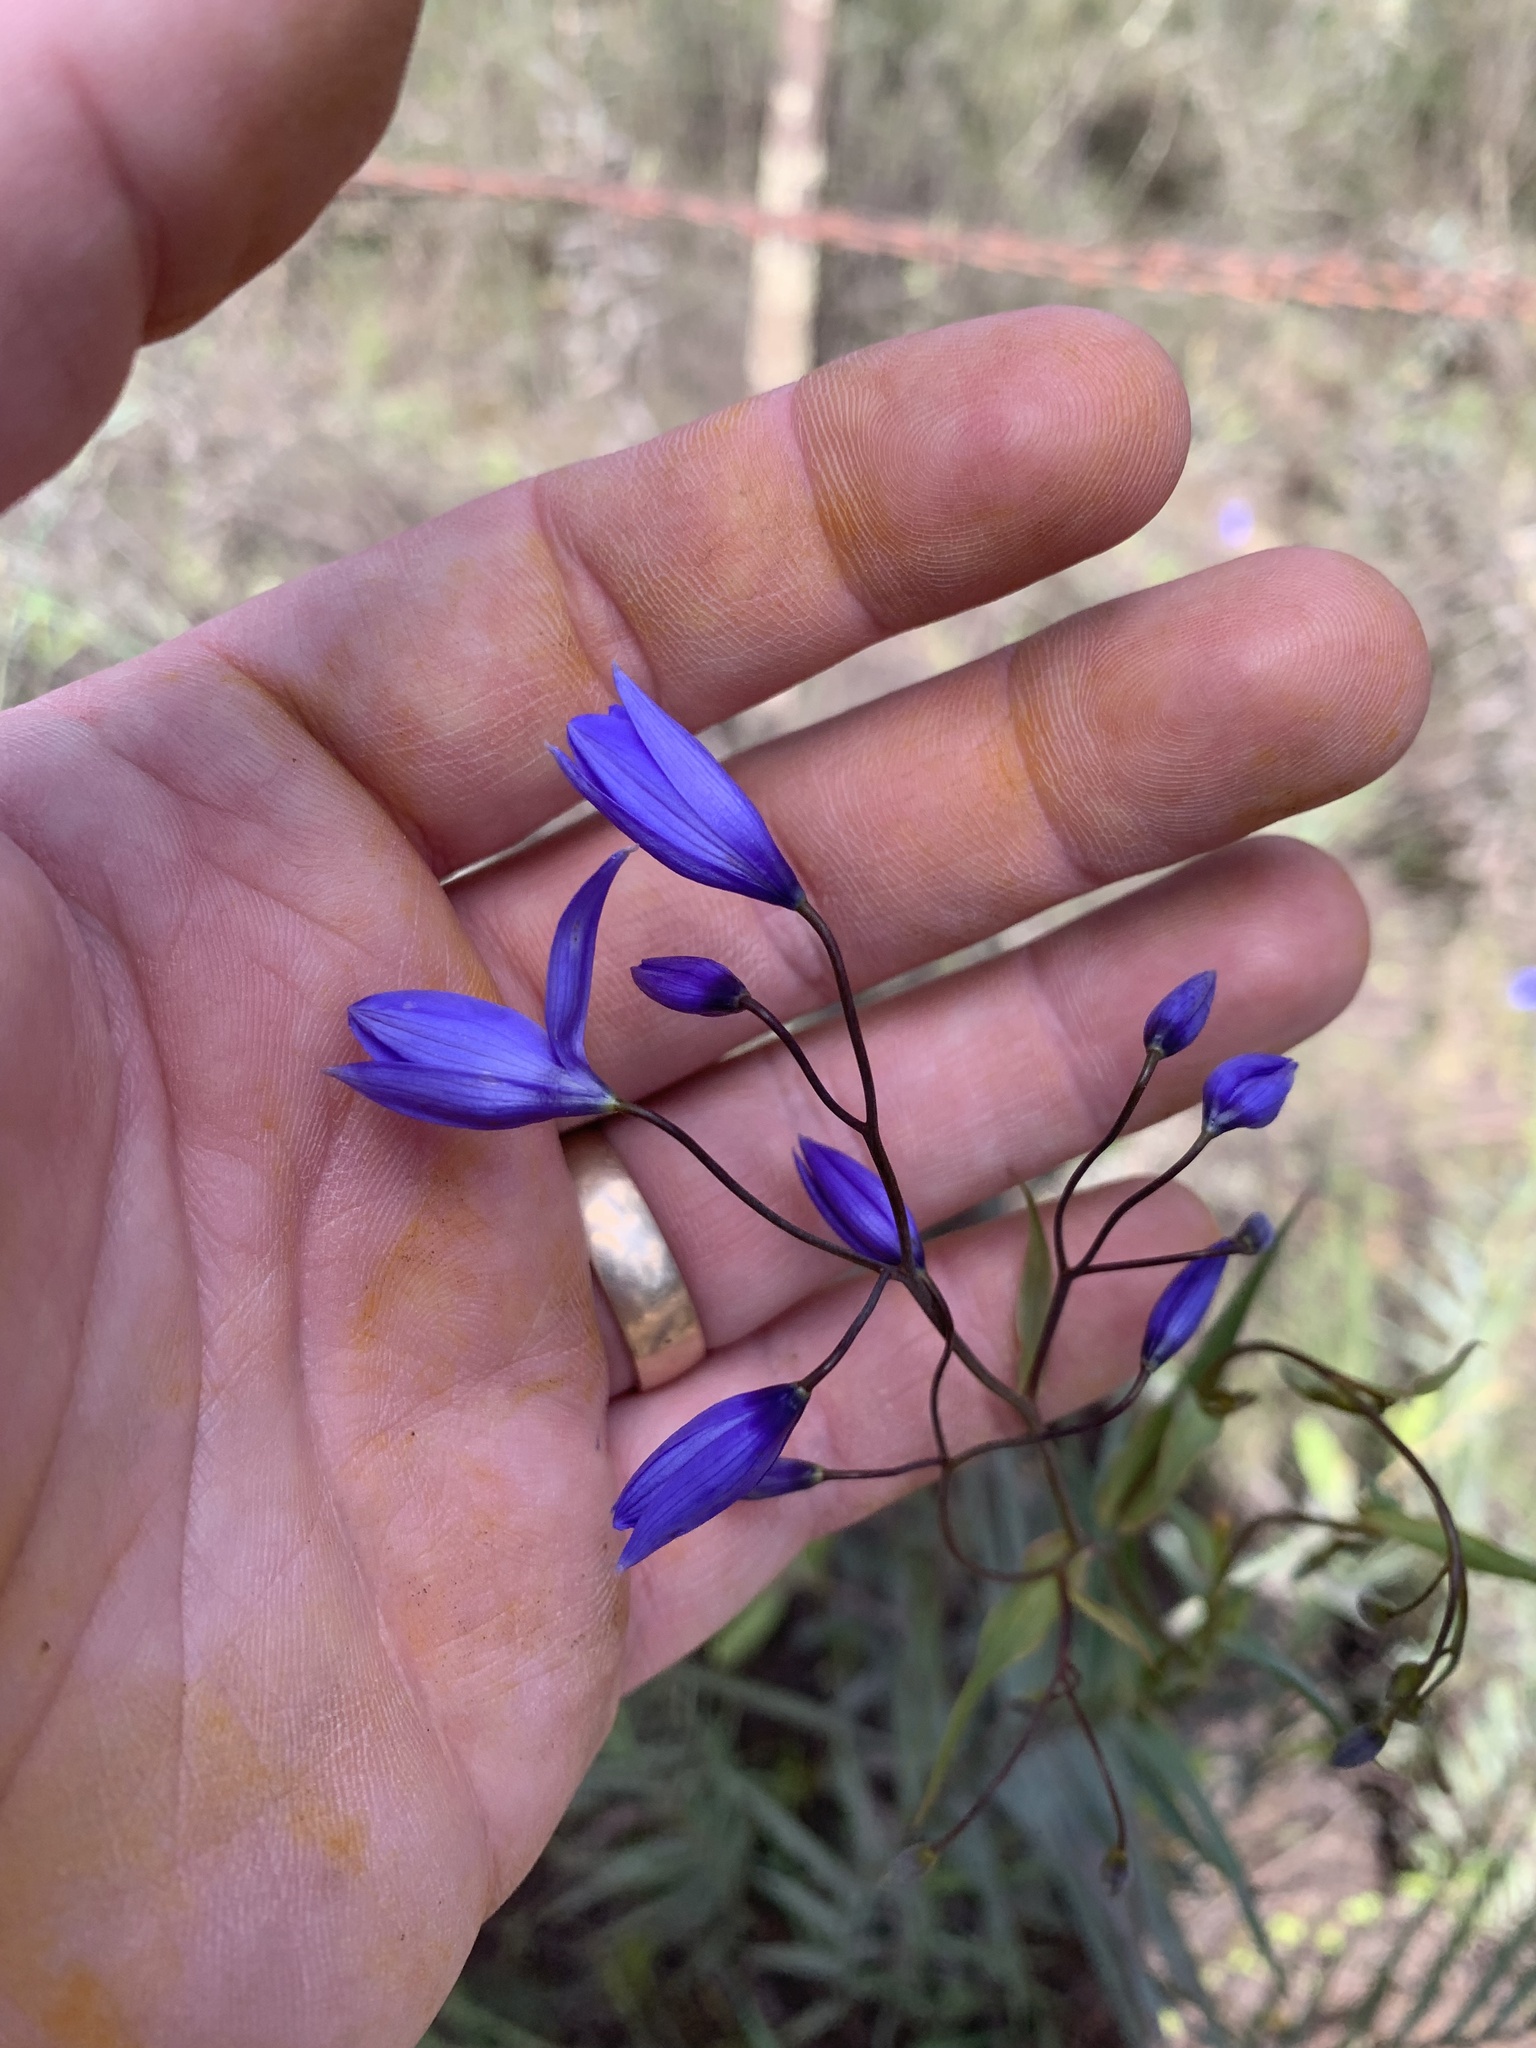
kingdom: Plantae
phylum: Tracheophyta
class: Liliopsida
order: Asparagales
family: Asphodelaceae
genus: Stypandra
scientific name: Stypandra glauca
